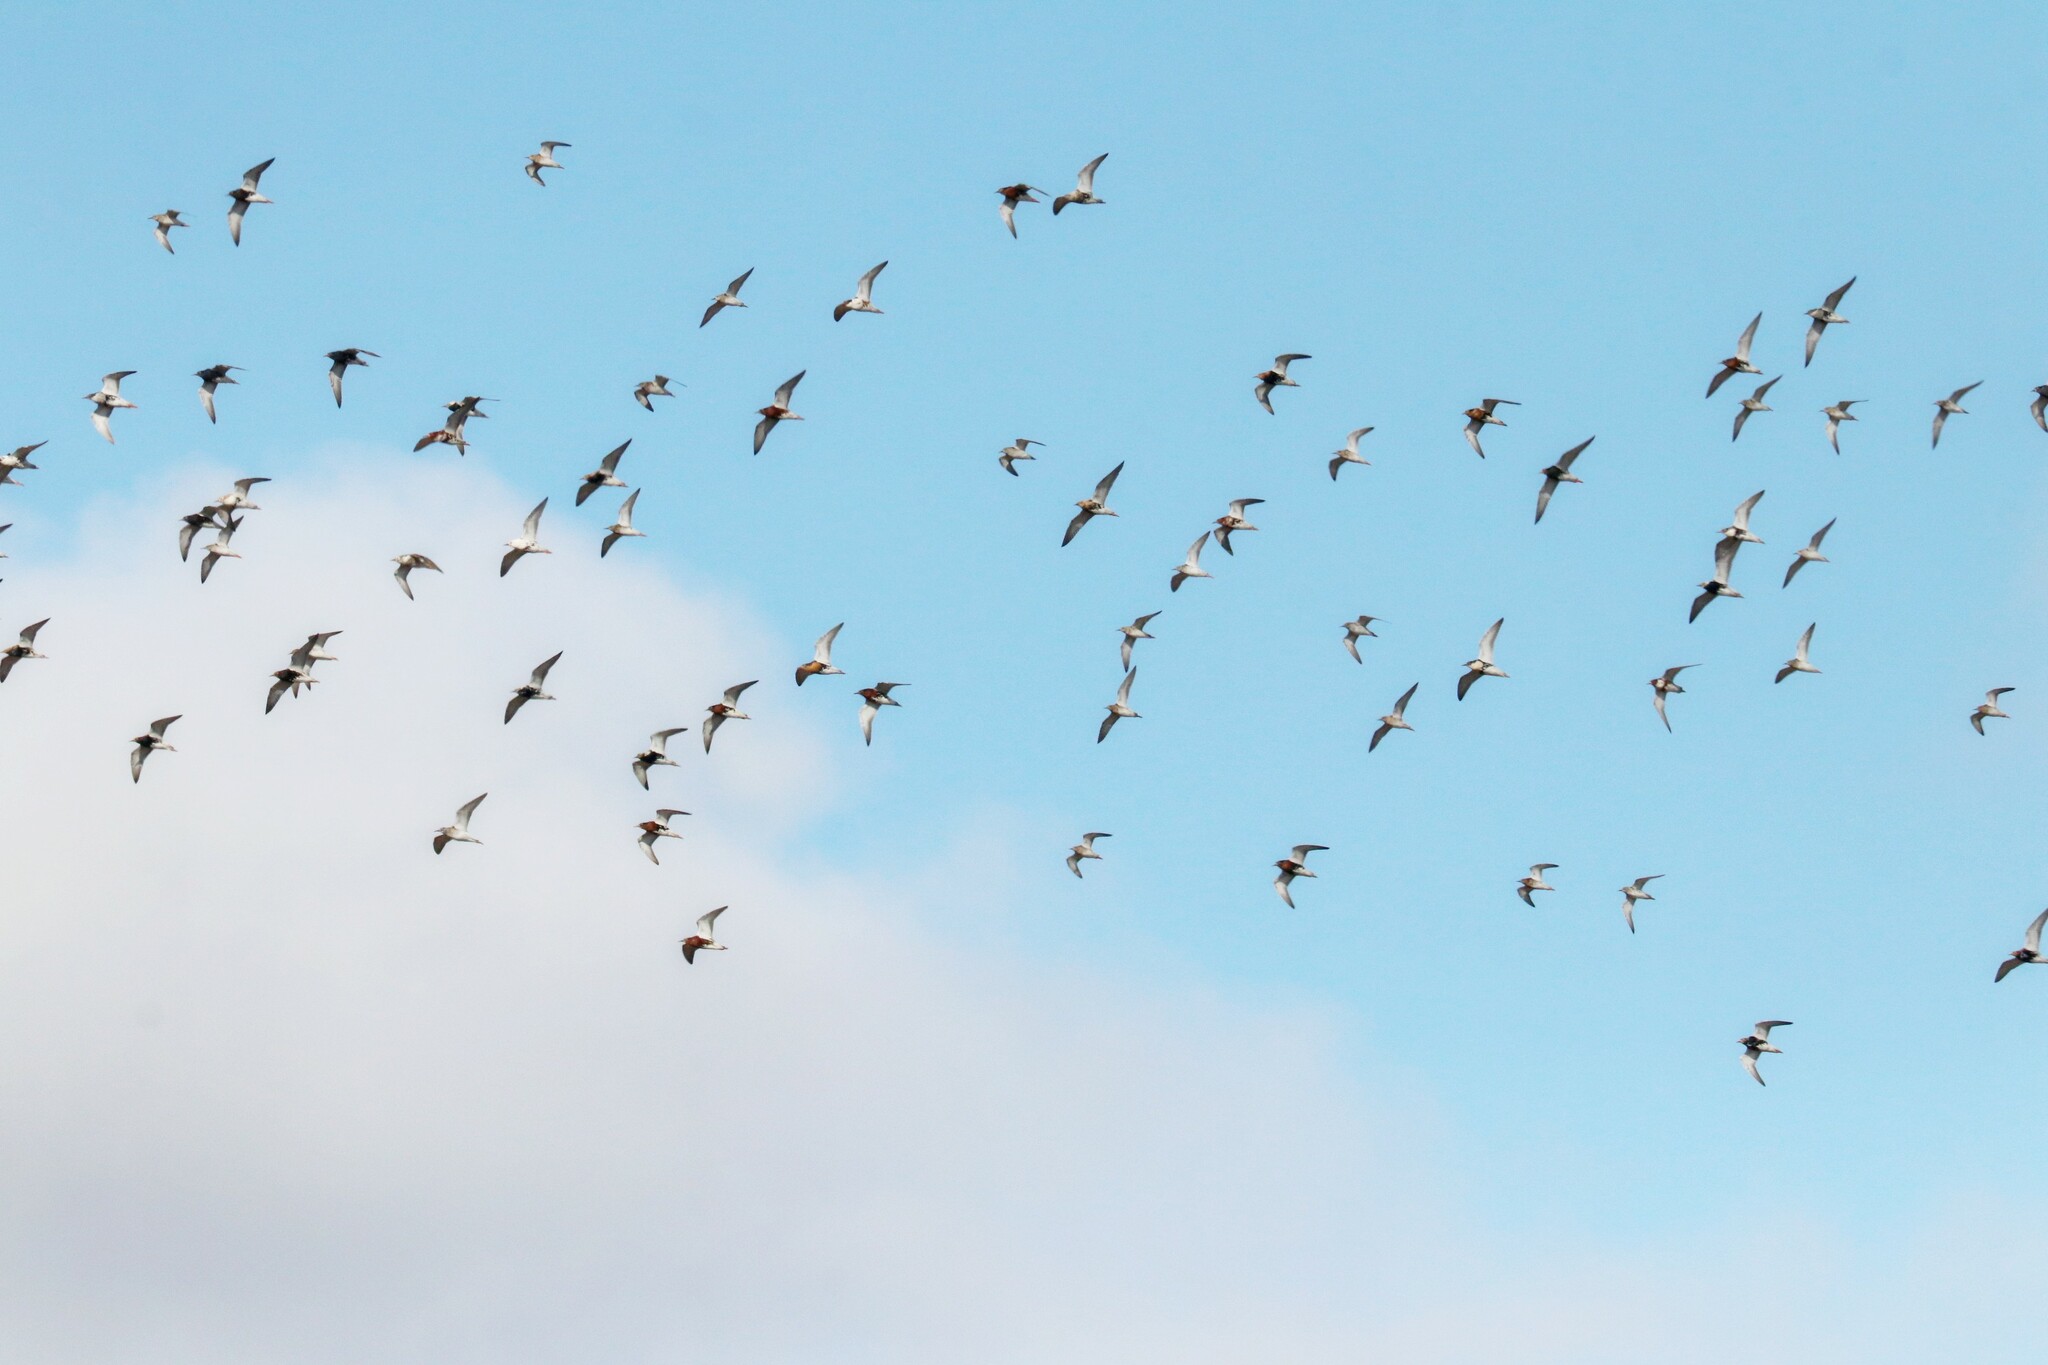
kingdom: Animalia
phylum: Chordata
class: Aves
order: Charadriiformes
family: Scolopacidae
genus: Calidris
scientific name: Calidris pugnax
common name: Ruff
